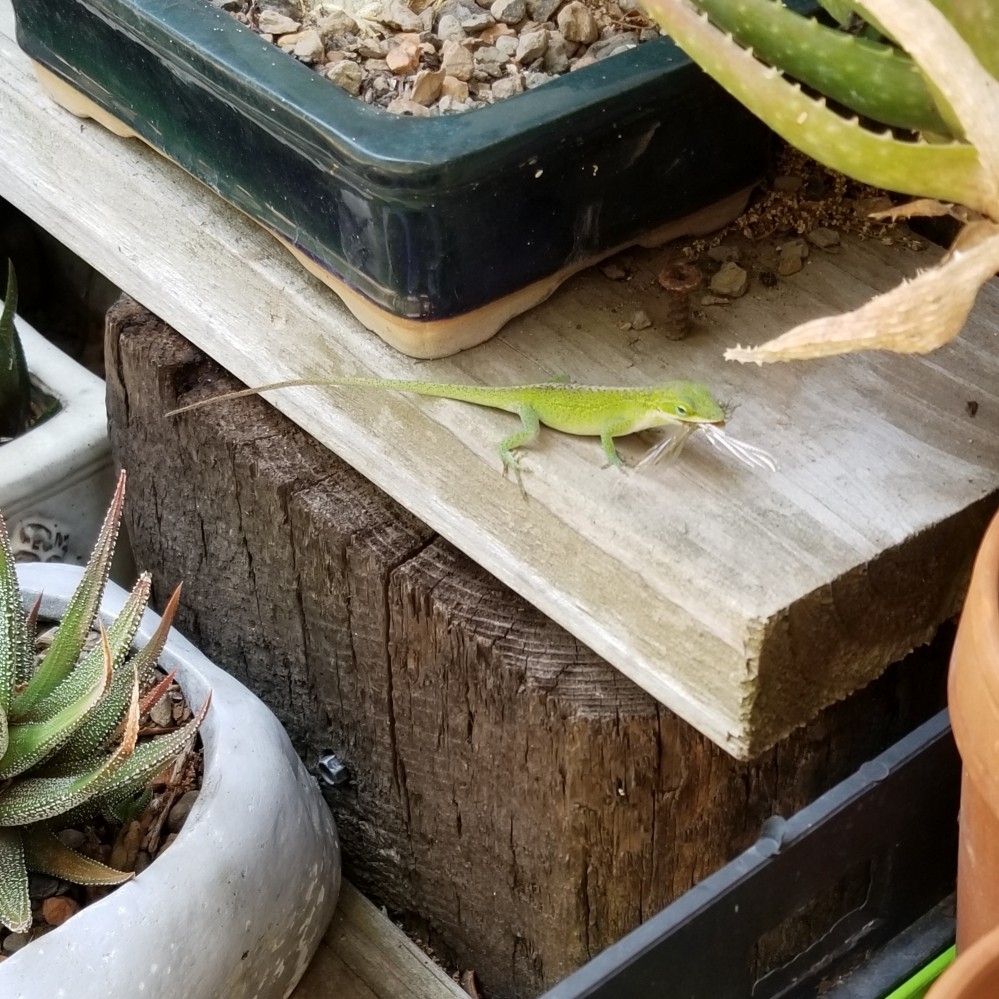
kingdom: Animalia
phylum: Chordata
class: Squamata
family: Dactyloidae
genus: Anolis
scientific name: Anolis carolinensis
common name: Green anole
